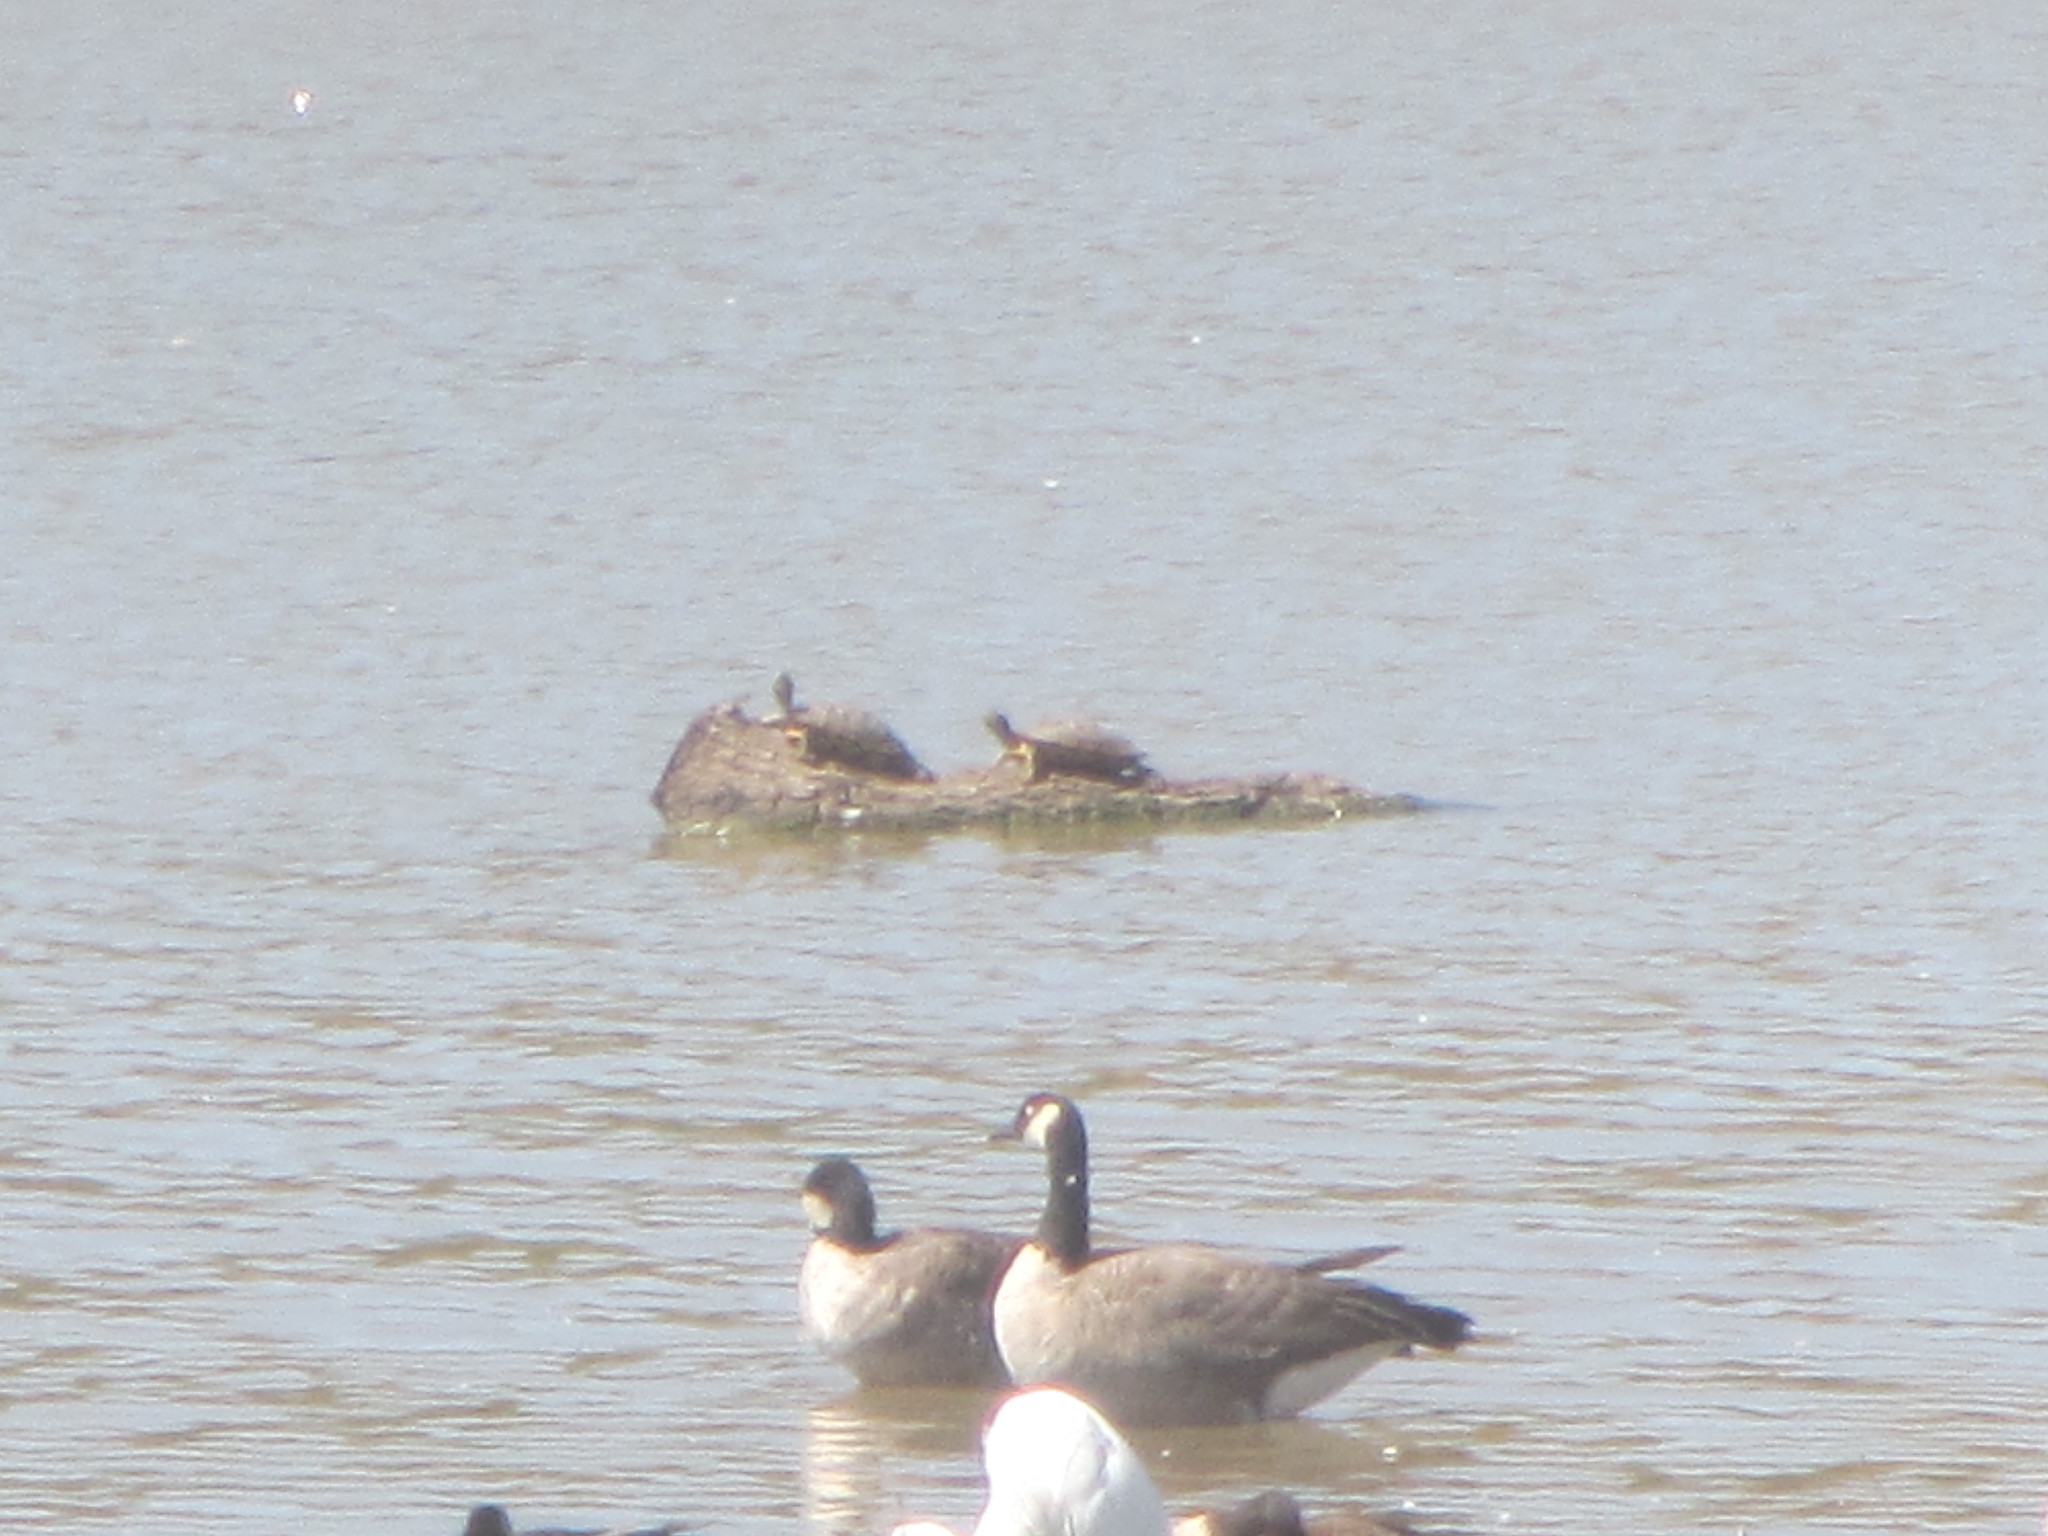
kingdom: Animalia
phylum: Chordata
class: Testudines
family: Emydidae
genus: Trachemys
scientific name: Trachemys scripta
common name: Slider
